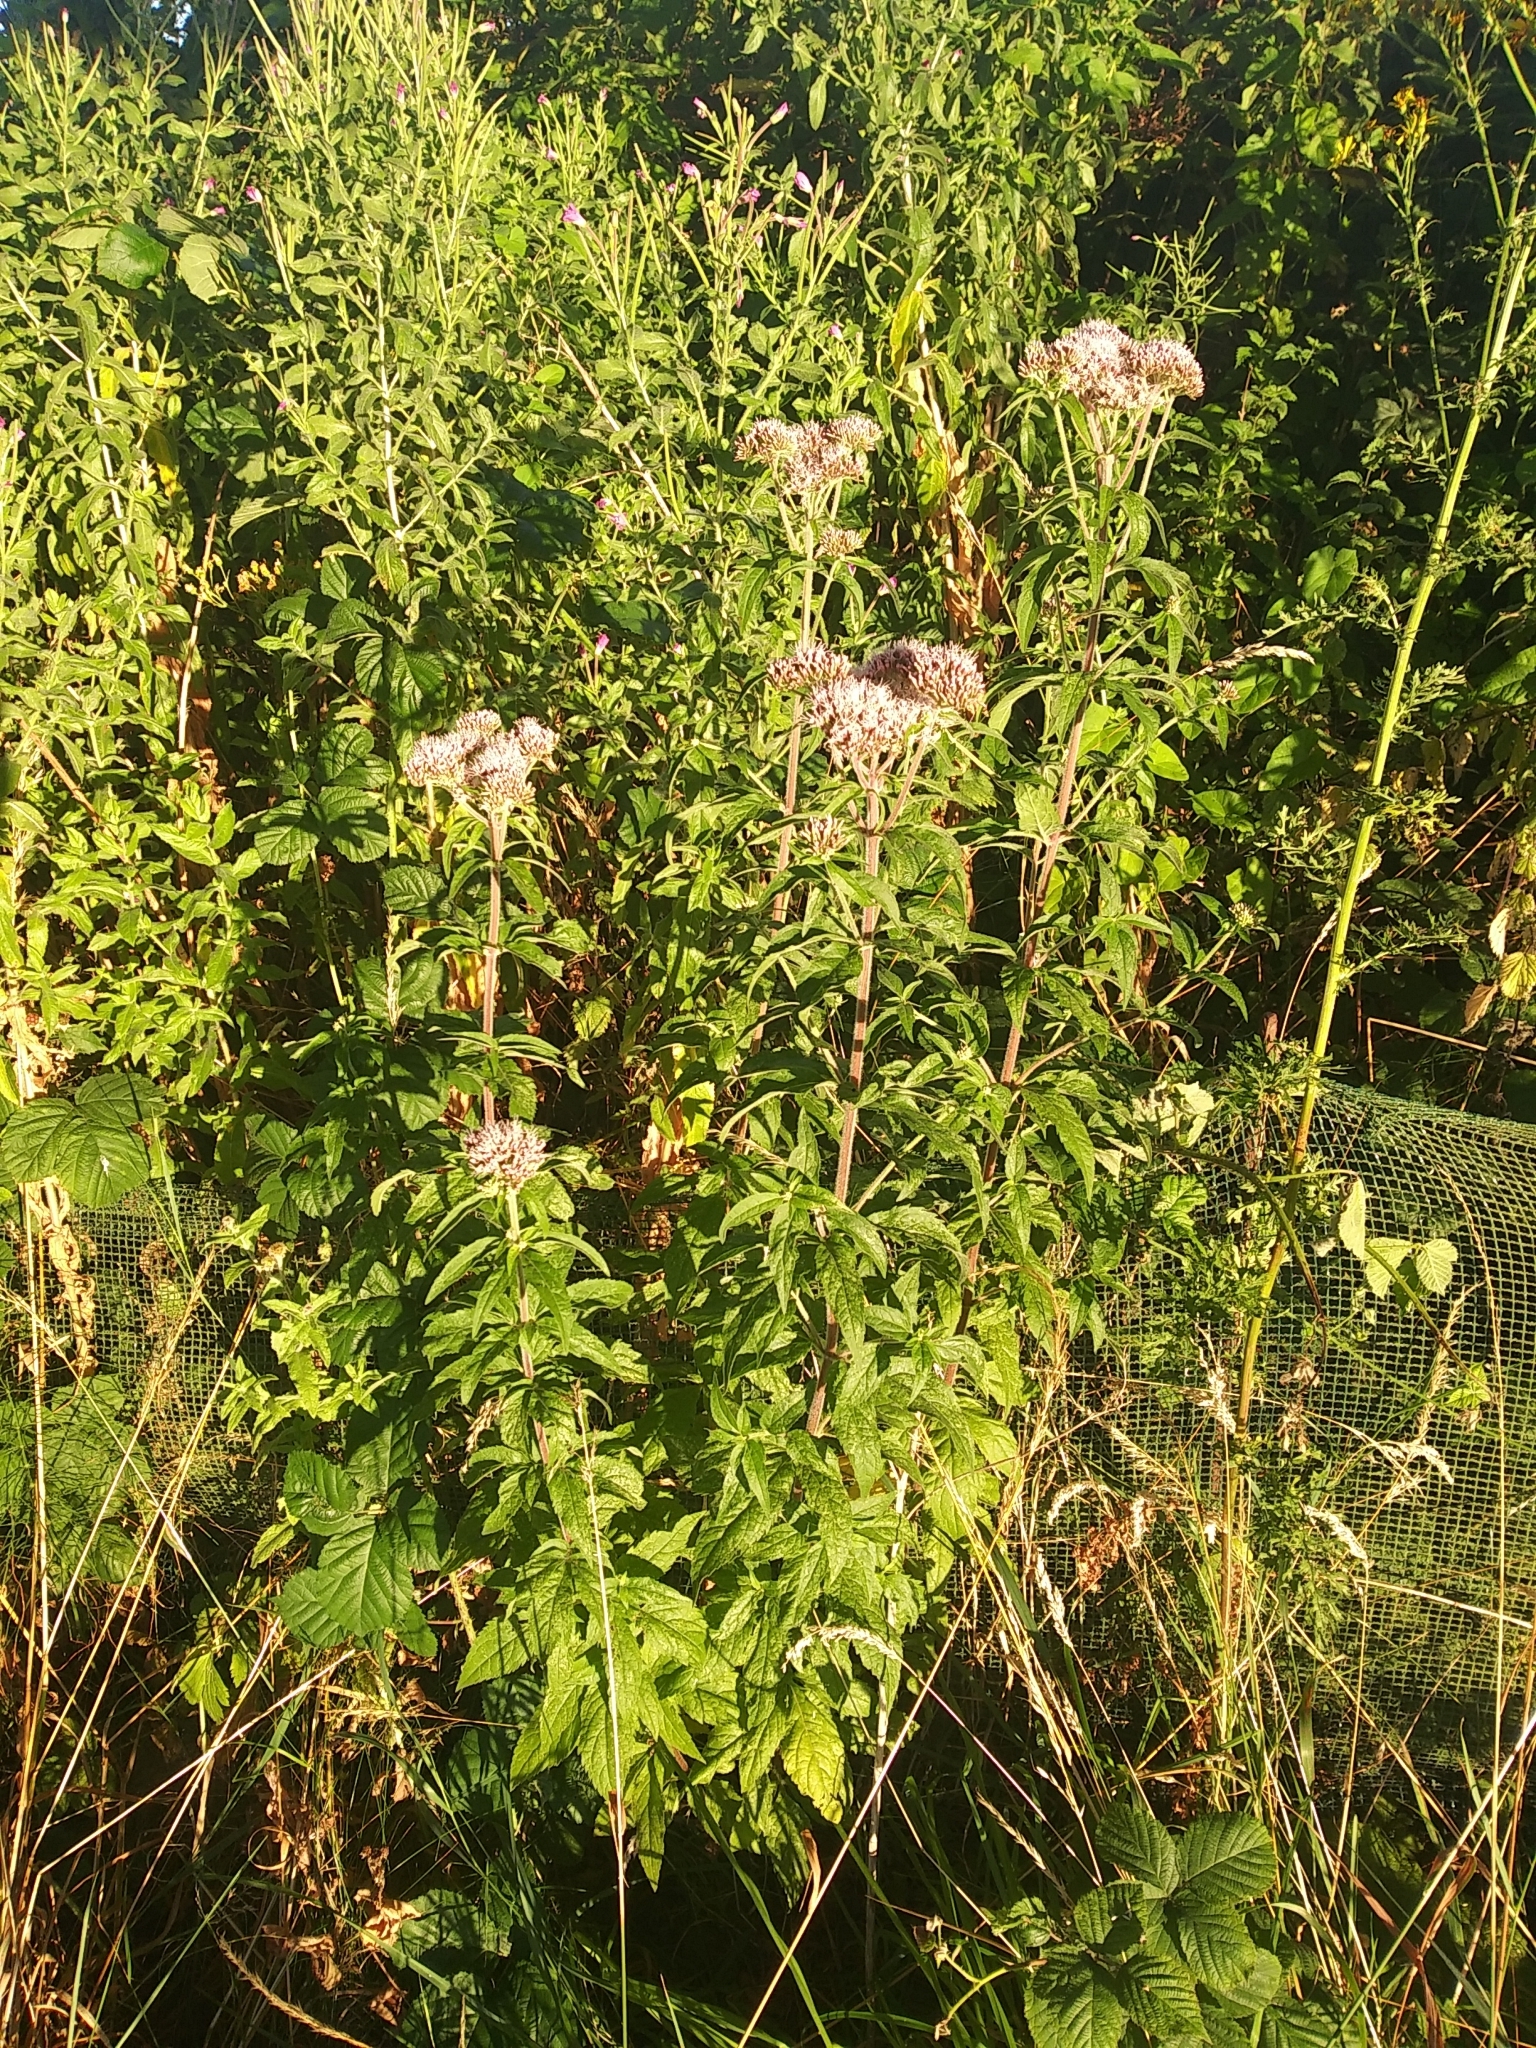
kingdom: Plantae
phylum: Tracheophyta
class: Magnoliopsida
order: Asterales
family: Asteraceae
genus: Eupatorium
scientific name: Eupatorium cannabinum
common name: Hemp-agrimony
